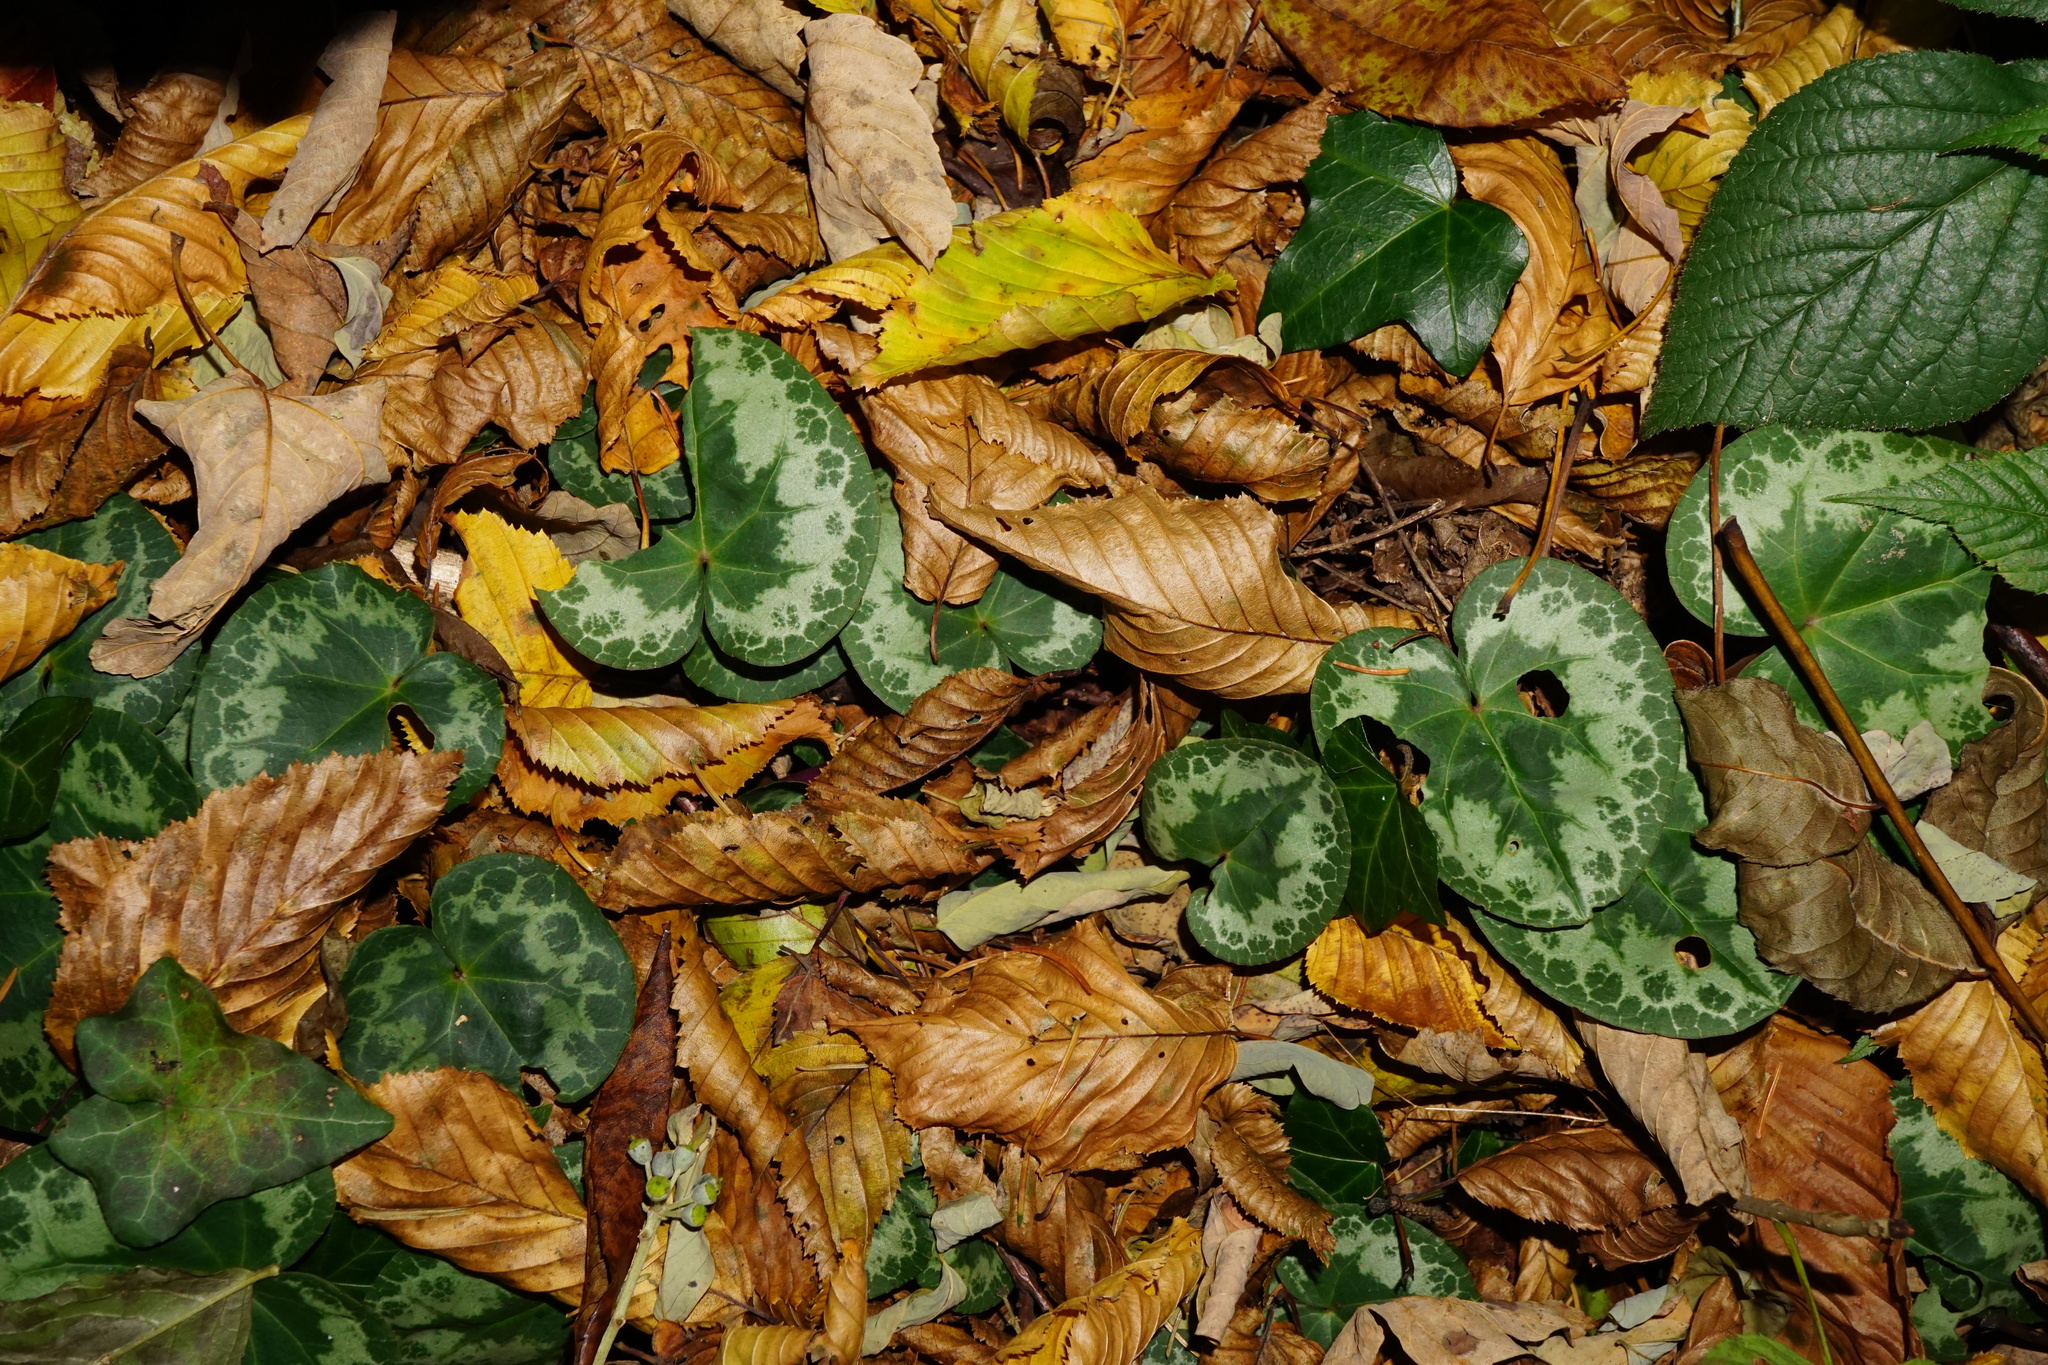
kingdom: Plantae
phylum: Tracheophyta
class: Magnoliopsida
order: Ericales
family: Primulaceae
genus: Cyclamen
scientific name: Cyclamen purpurascens
